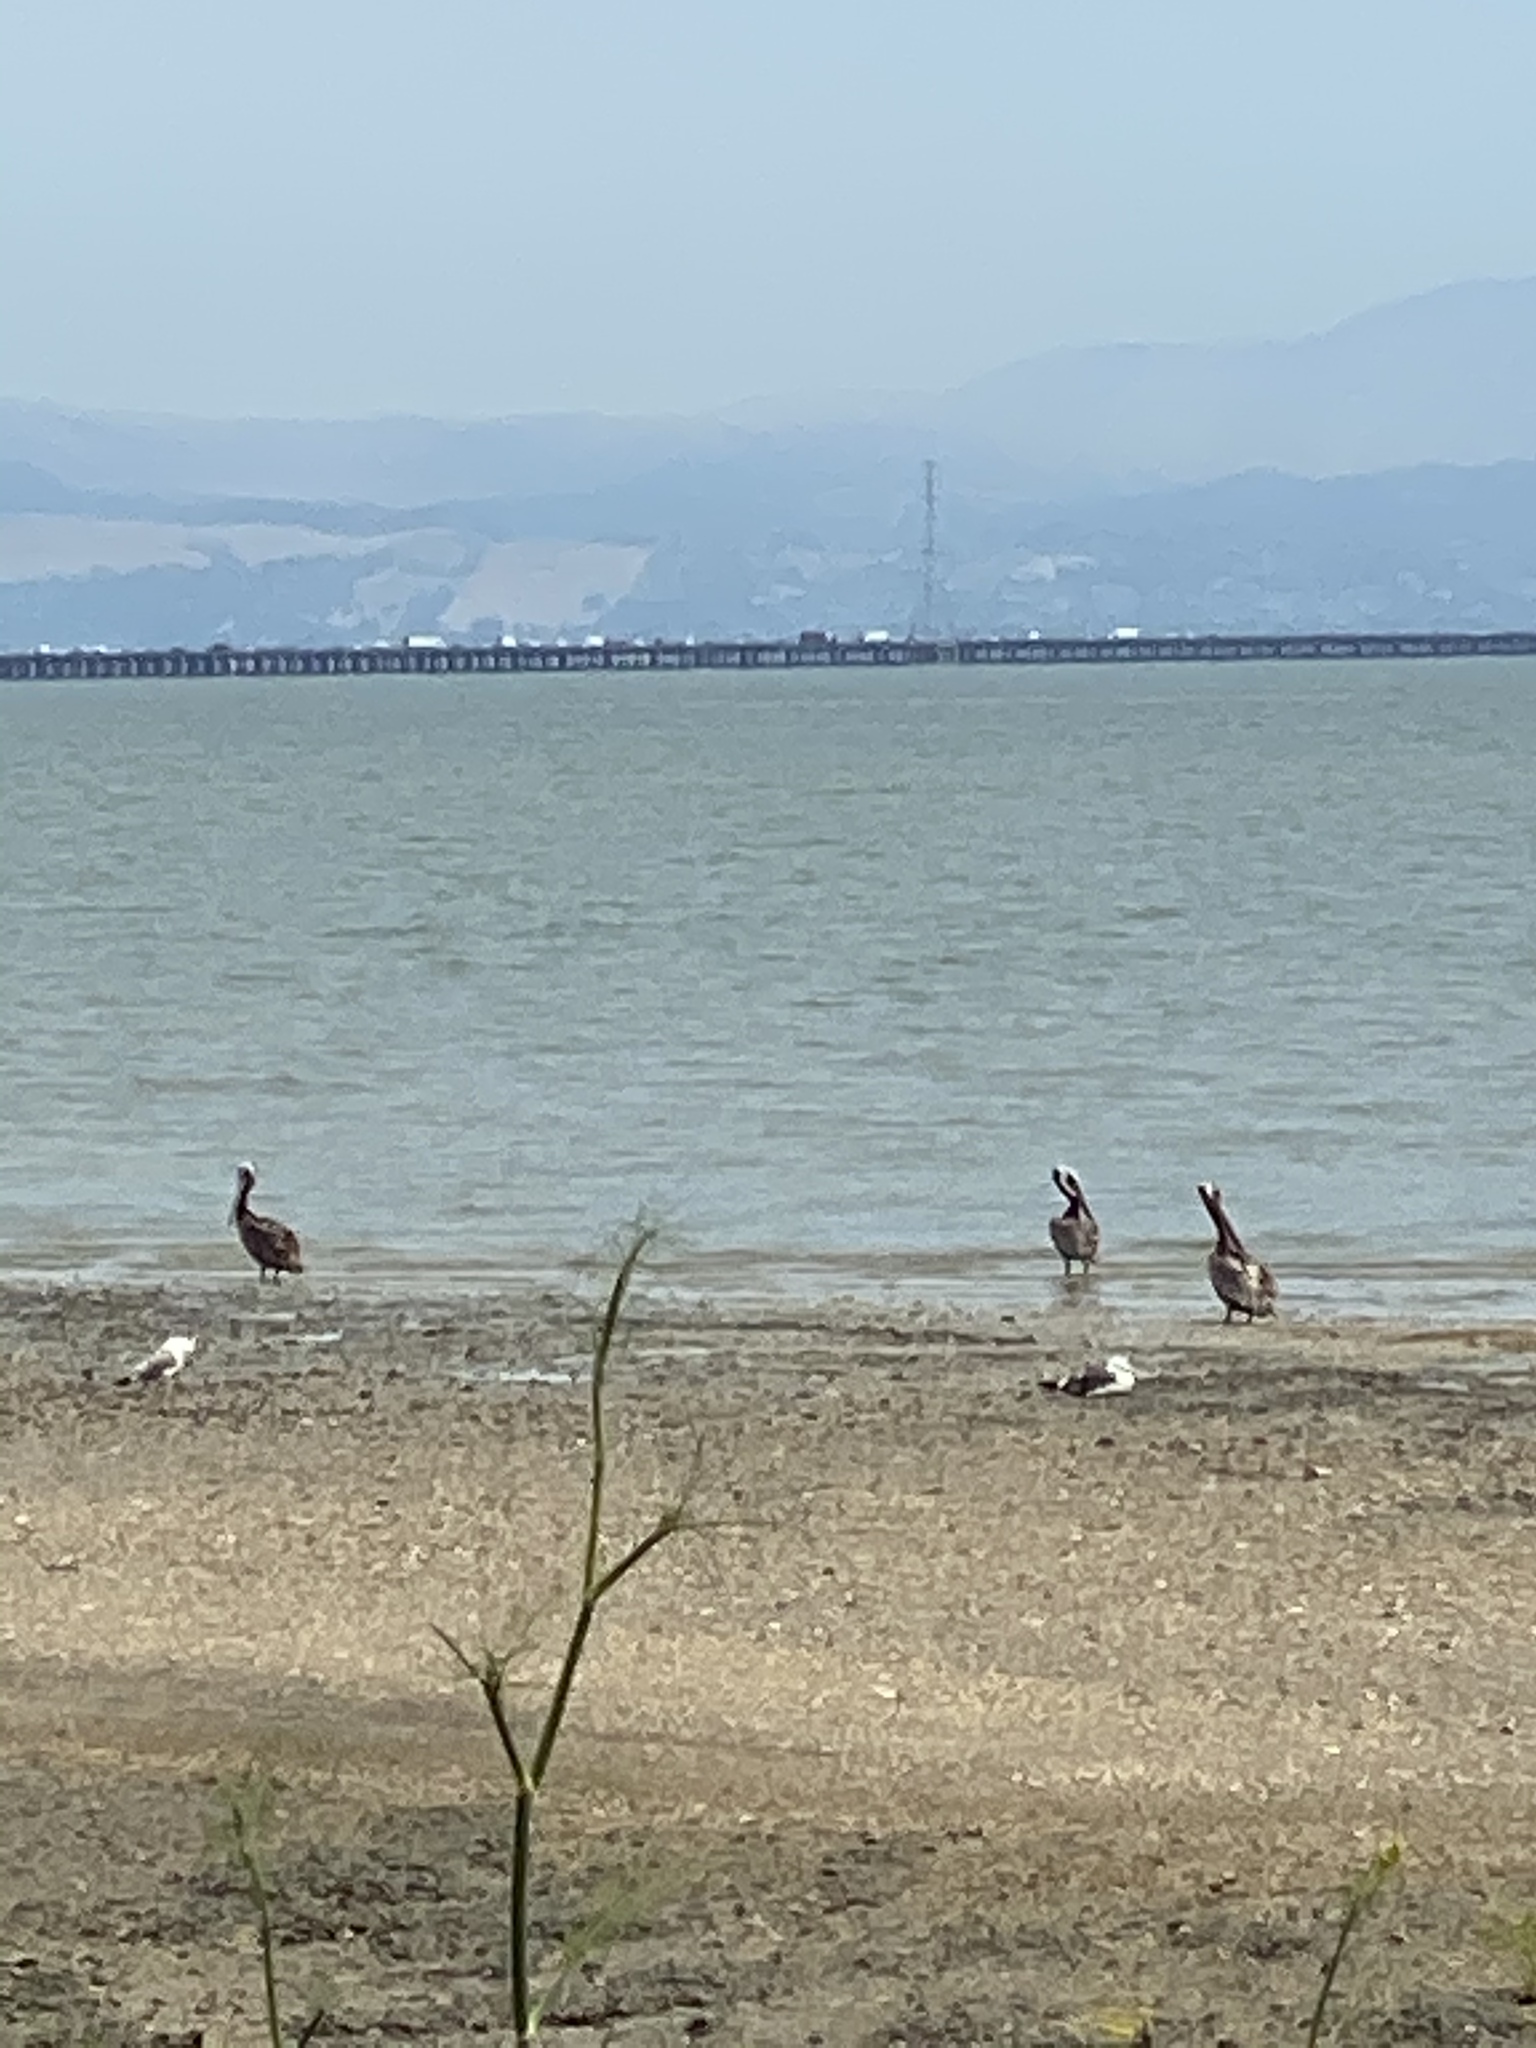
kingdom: Animalia
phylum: Chordata
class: Aves
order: Pelecaniformes
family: Pelecanidae
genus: Pelecanus
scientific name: Pelecanus occidentalis
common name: Brown pelican
